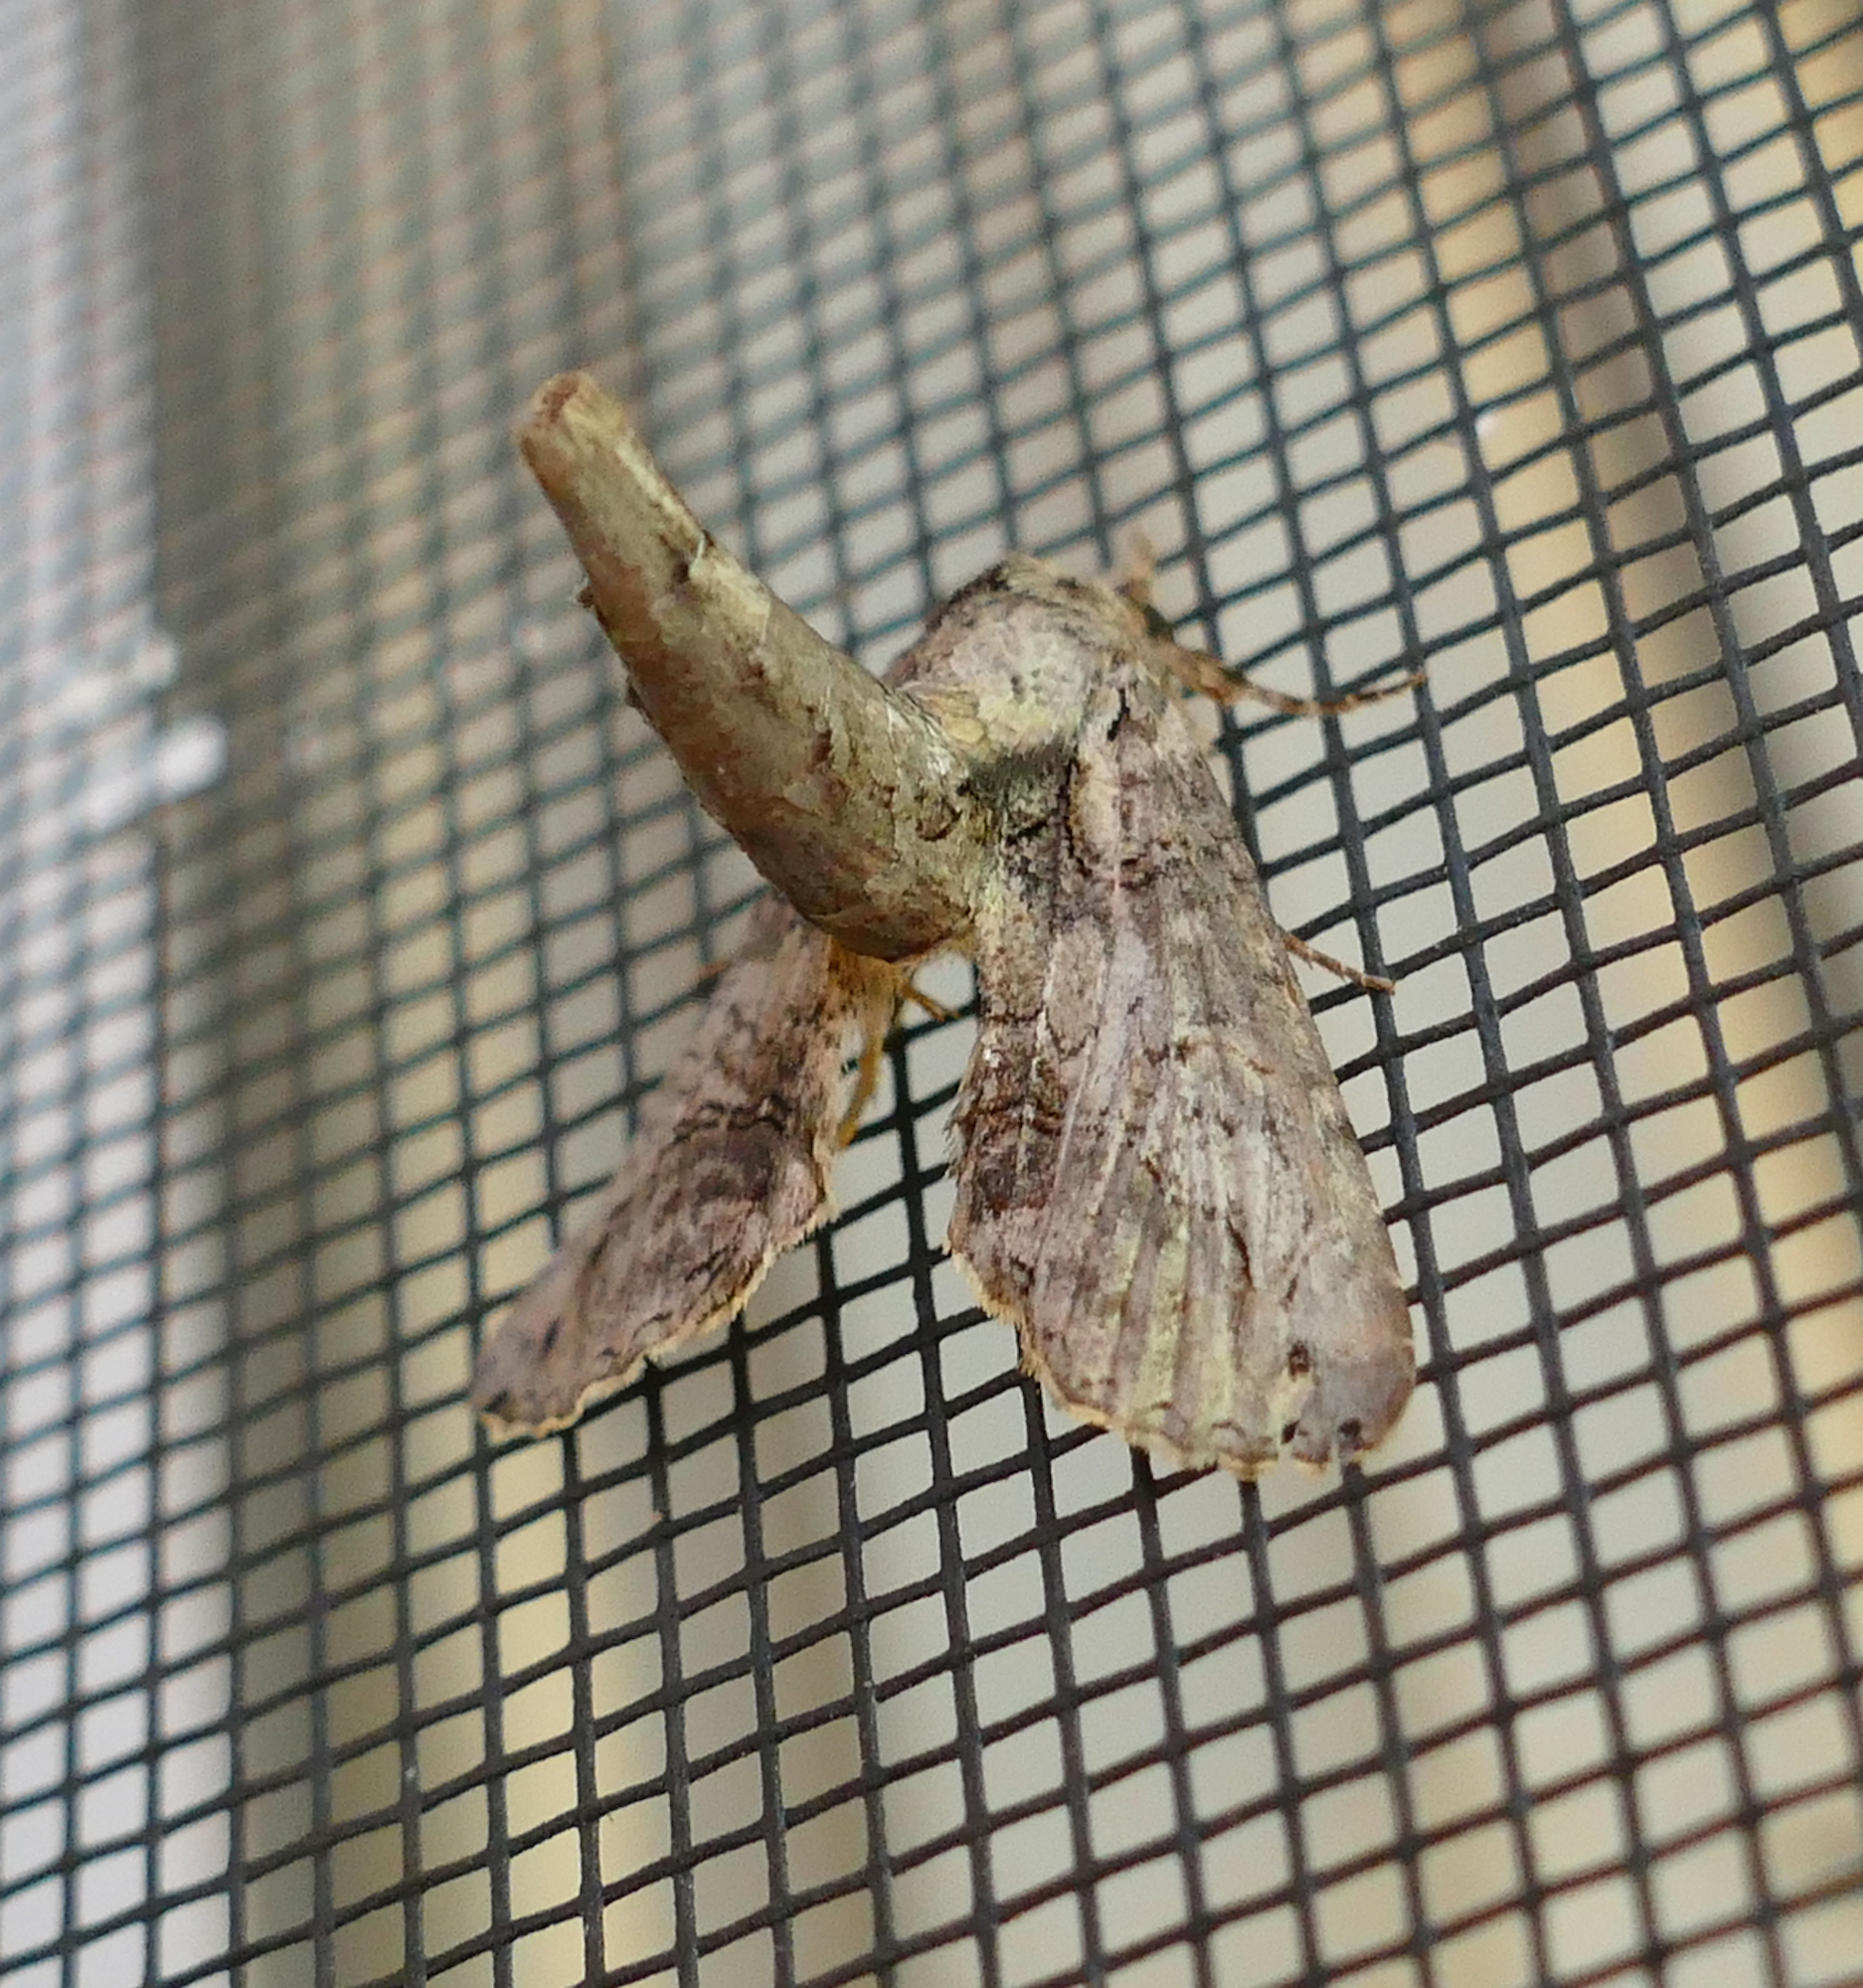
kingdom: Animalia
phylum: Arthropoda
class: Insecta
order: Lepidoptera
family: Euteliidae
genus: Paectes
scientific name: Paectes abrostoloides
